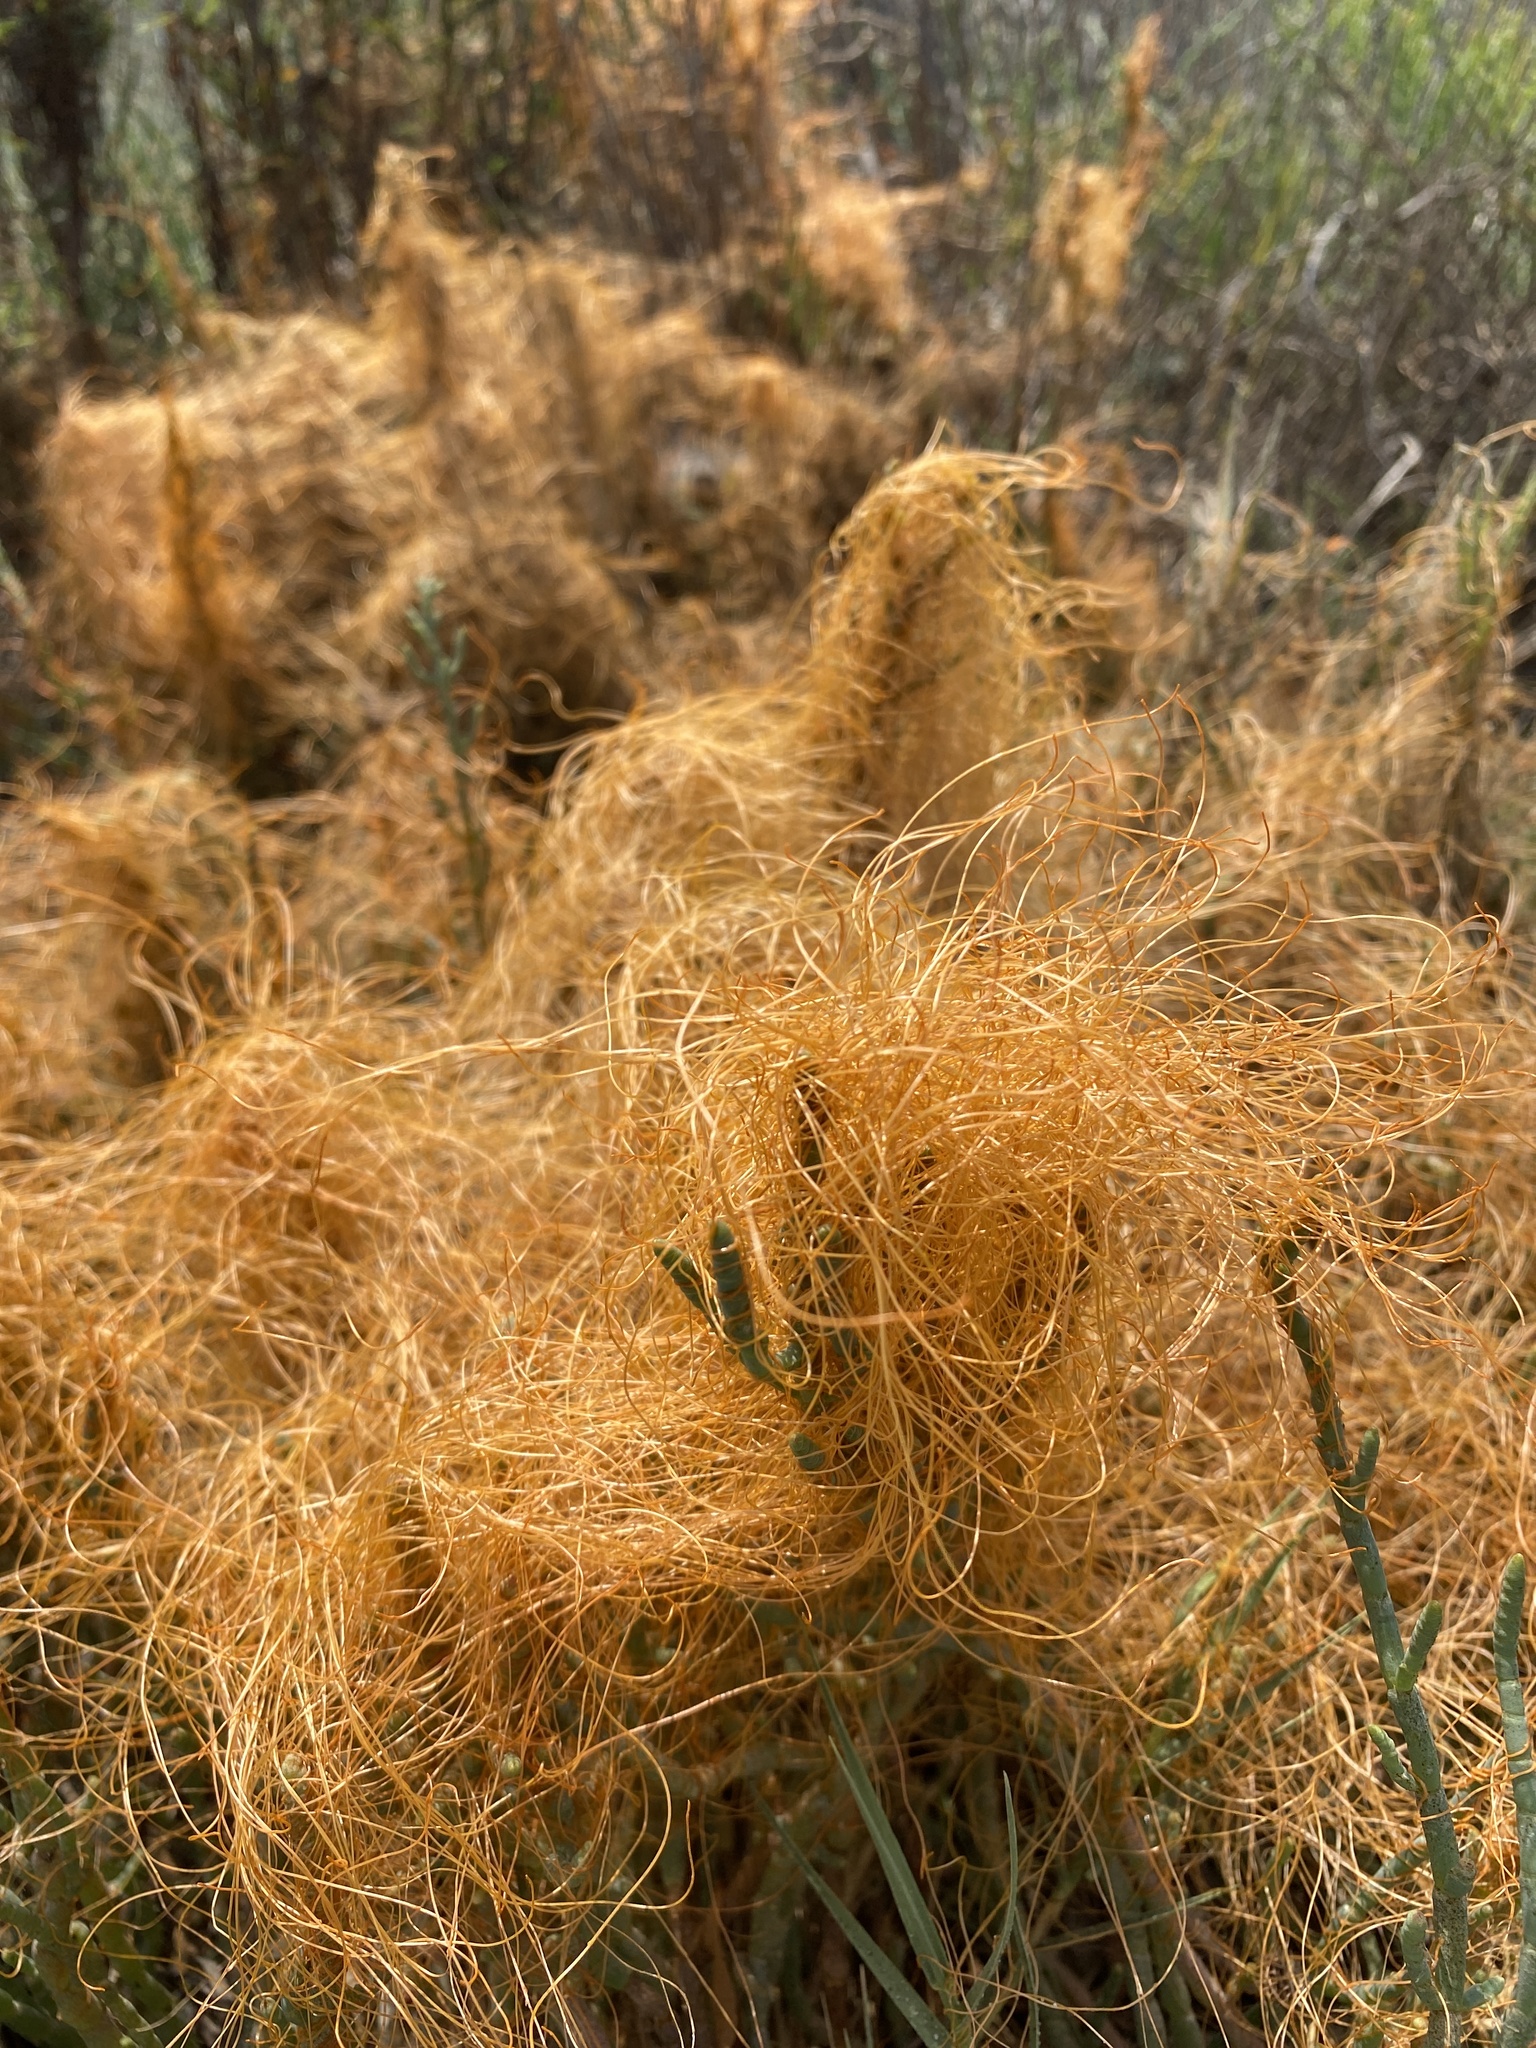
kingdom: Plantae
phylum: Tracheophyta
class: Magnoliopsida
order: Solanales
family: Convolvulaceae
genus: Cuscuta
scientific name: Cuscuta pacifica
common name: Large saltmarsh dodder
